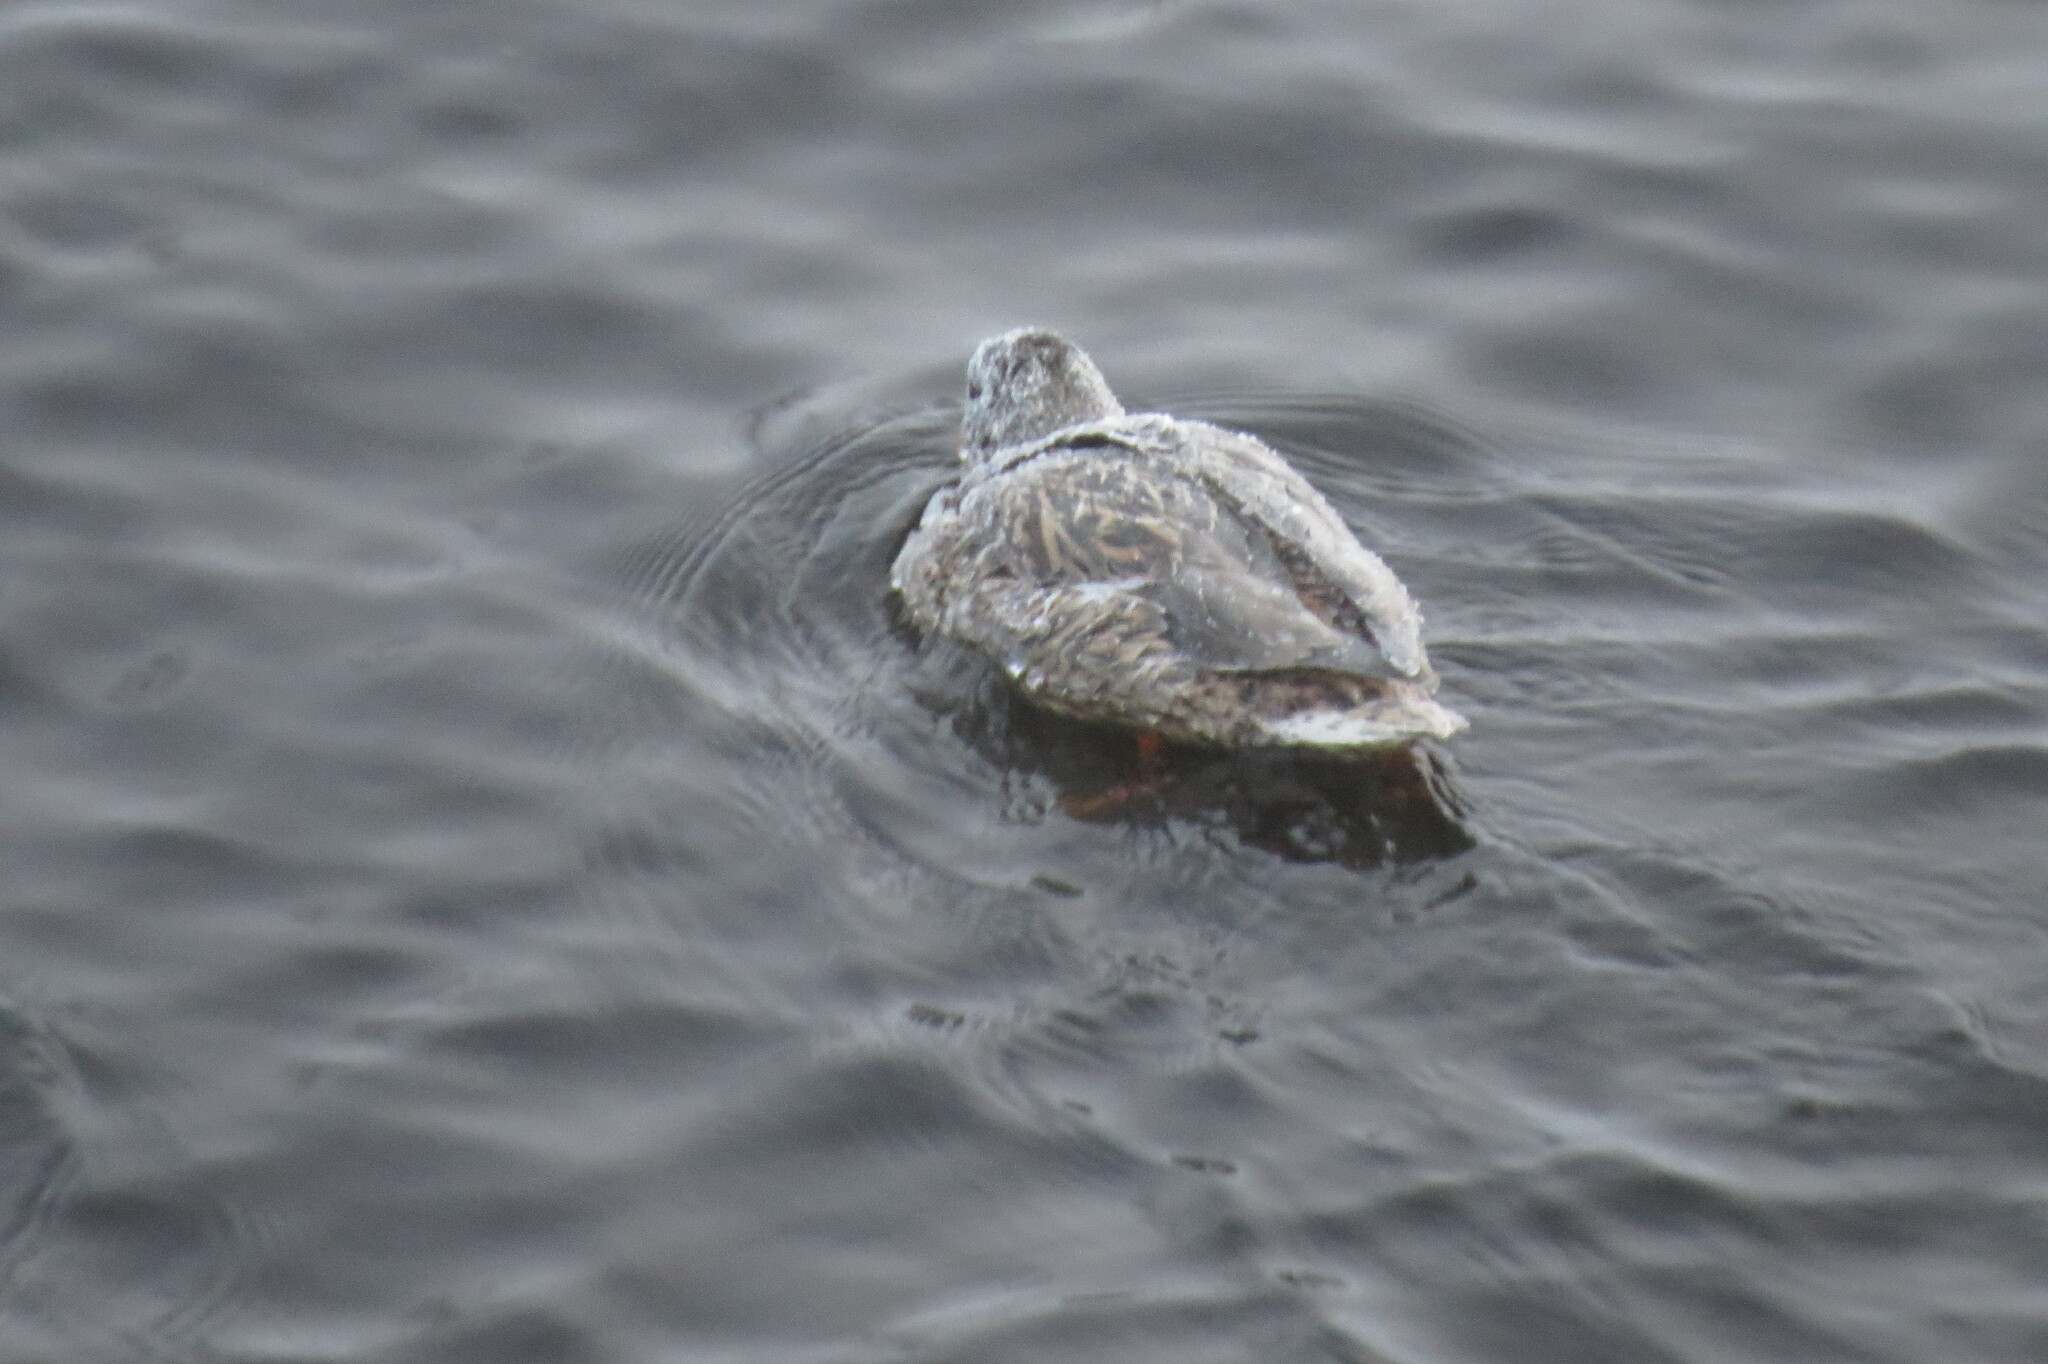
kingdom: Animalia
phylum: Chordata
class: Aves
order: Anseriformes
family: Anatidae
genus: Anas
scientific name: Anas platyrhynchos
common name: Mallard
